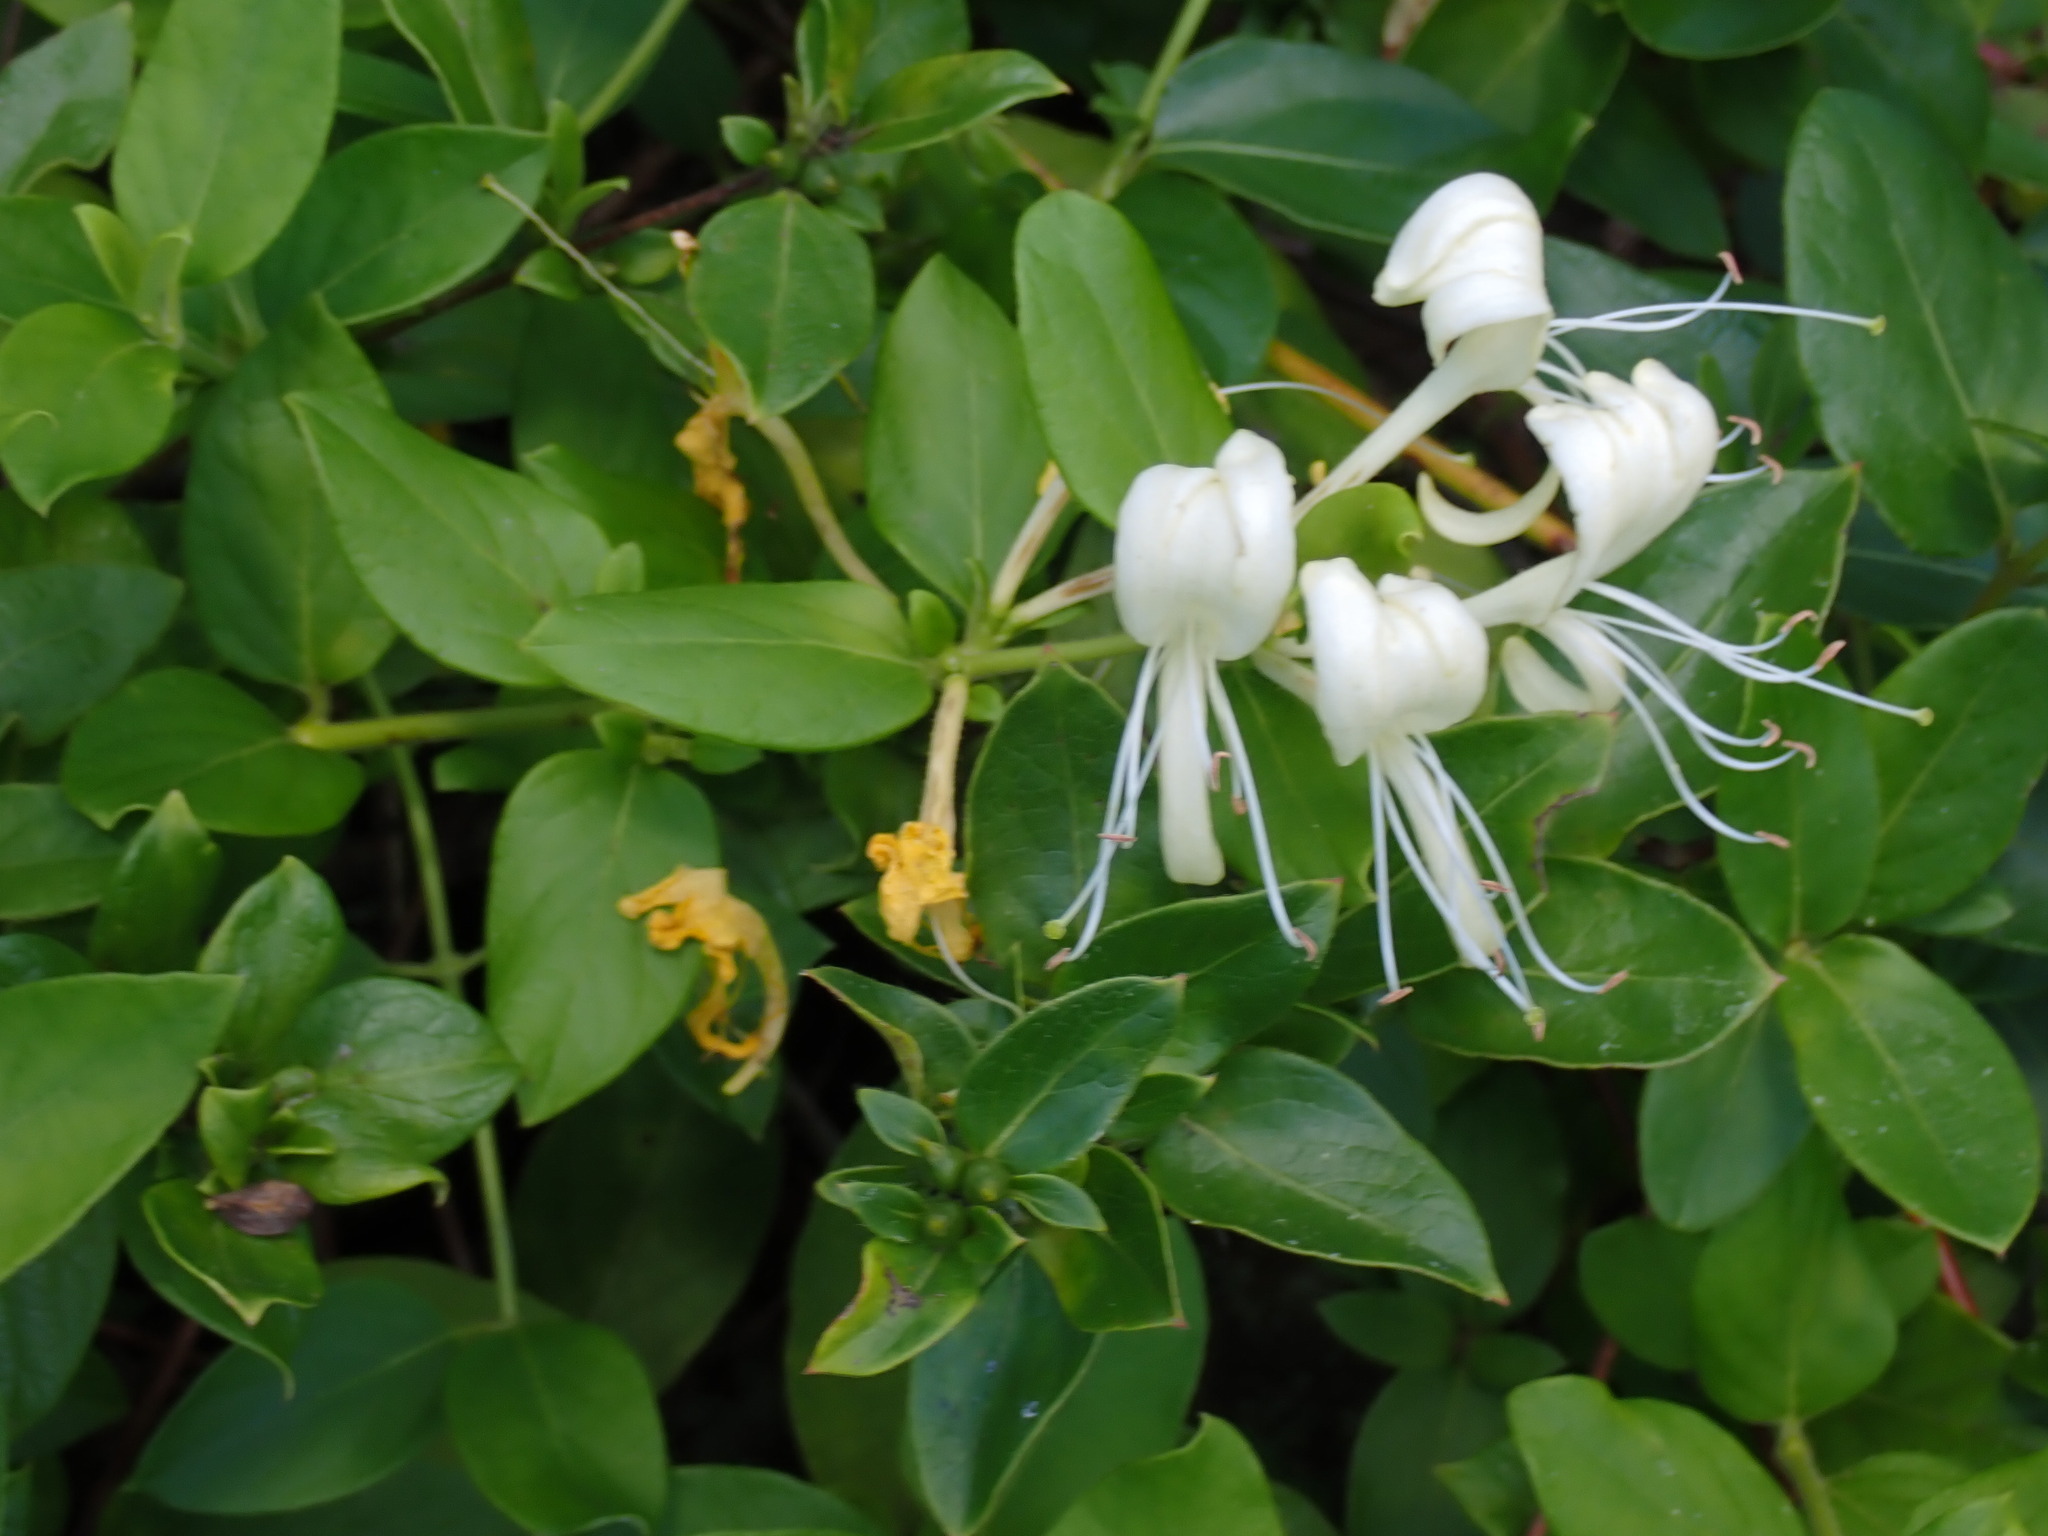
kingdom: Plantae
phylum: Tracheophyta
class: Magnoliopsida
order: Dipsacales
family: Caprifoliaceae
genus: Lonicera
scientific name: Lonicera japonica
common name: Japanese honeysuckle
